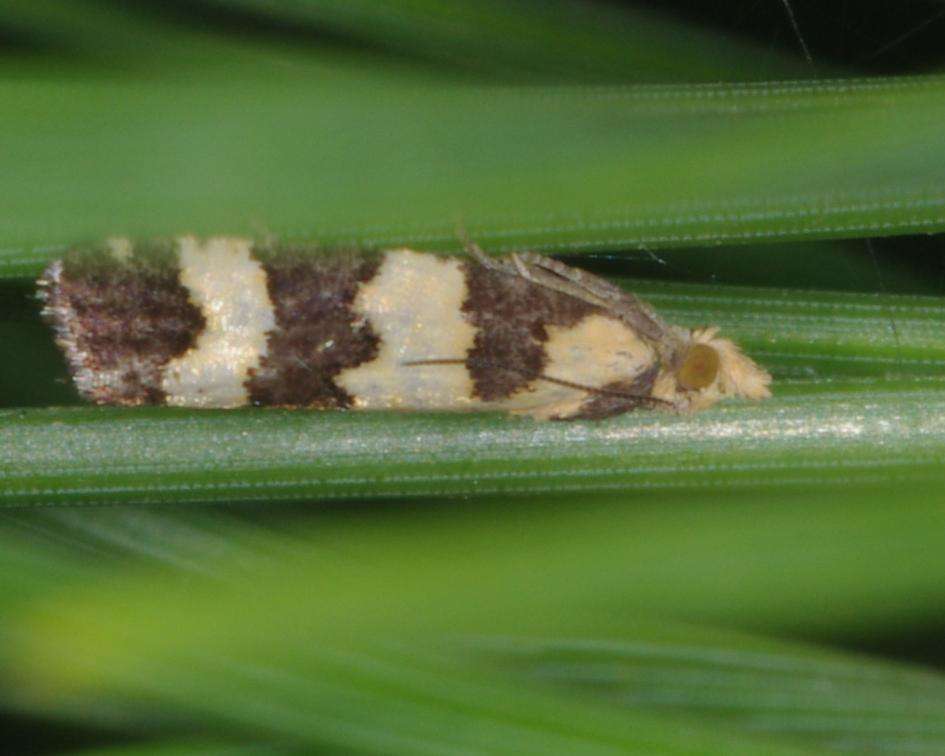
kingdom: Animalia
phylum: Arthropoda
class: Insecta
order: Lepidoptera
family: Tortricidae
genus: Conchylis
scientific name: Conchylis tasmaniana
